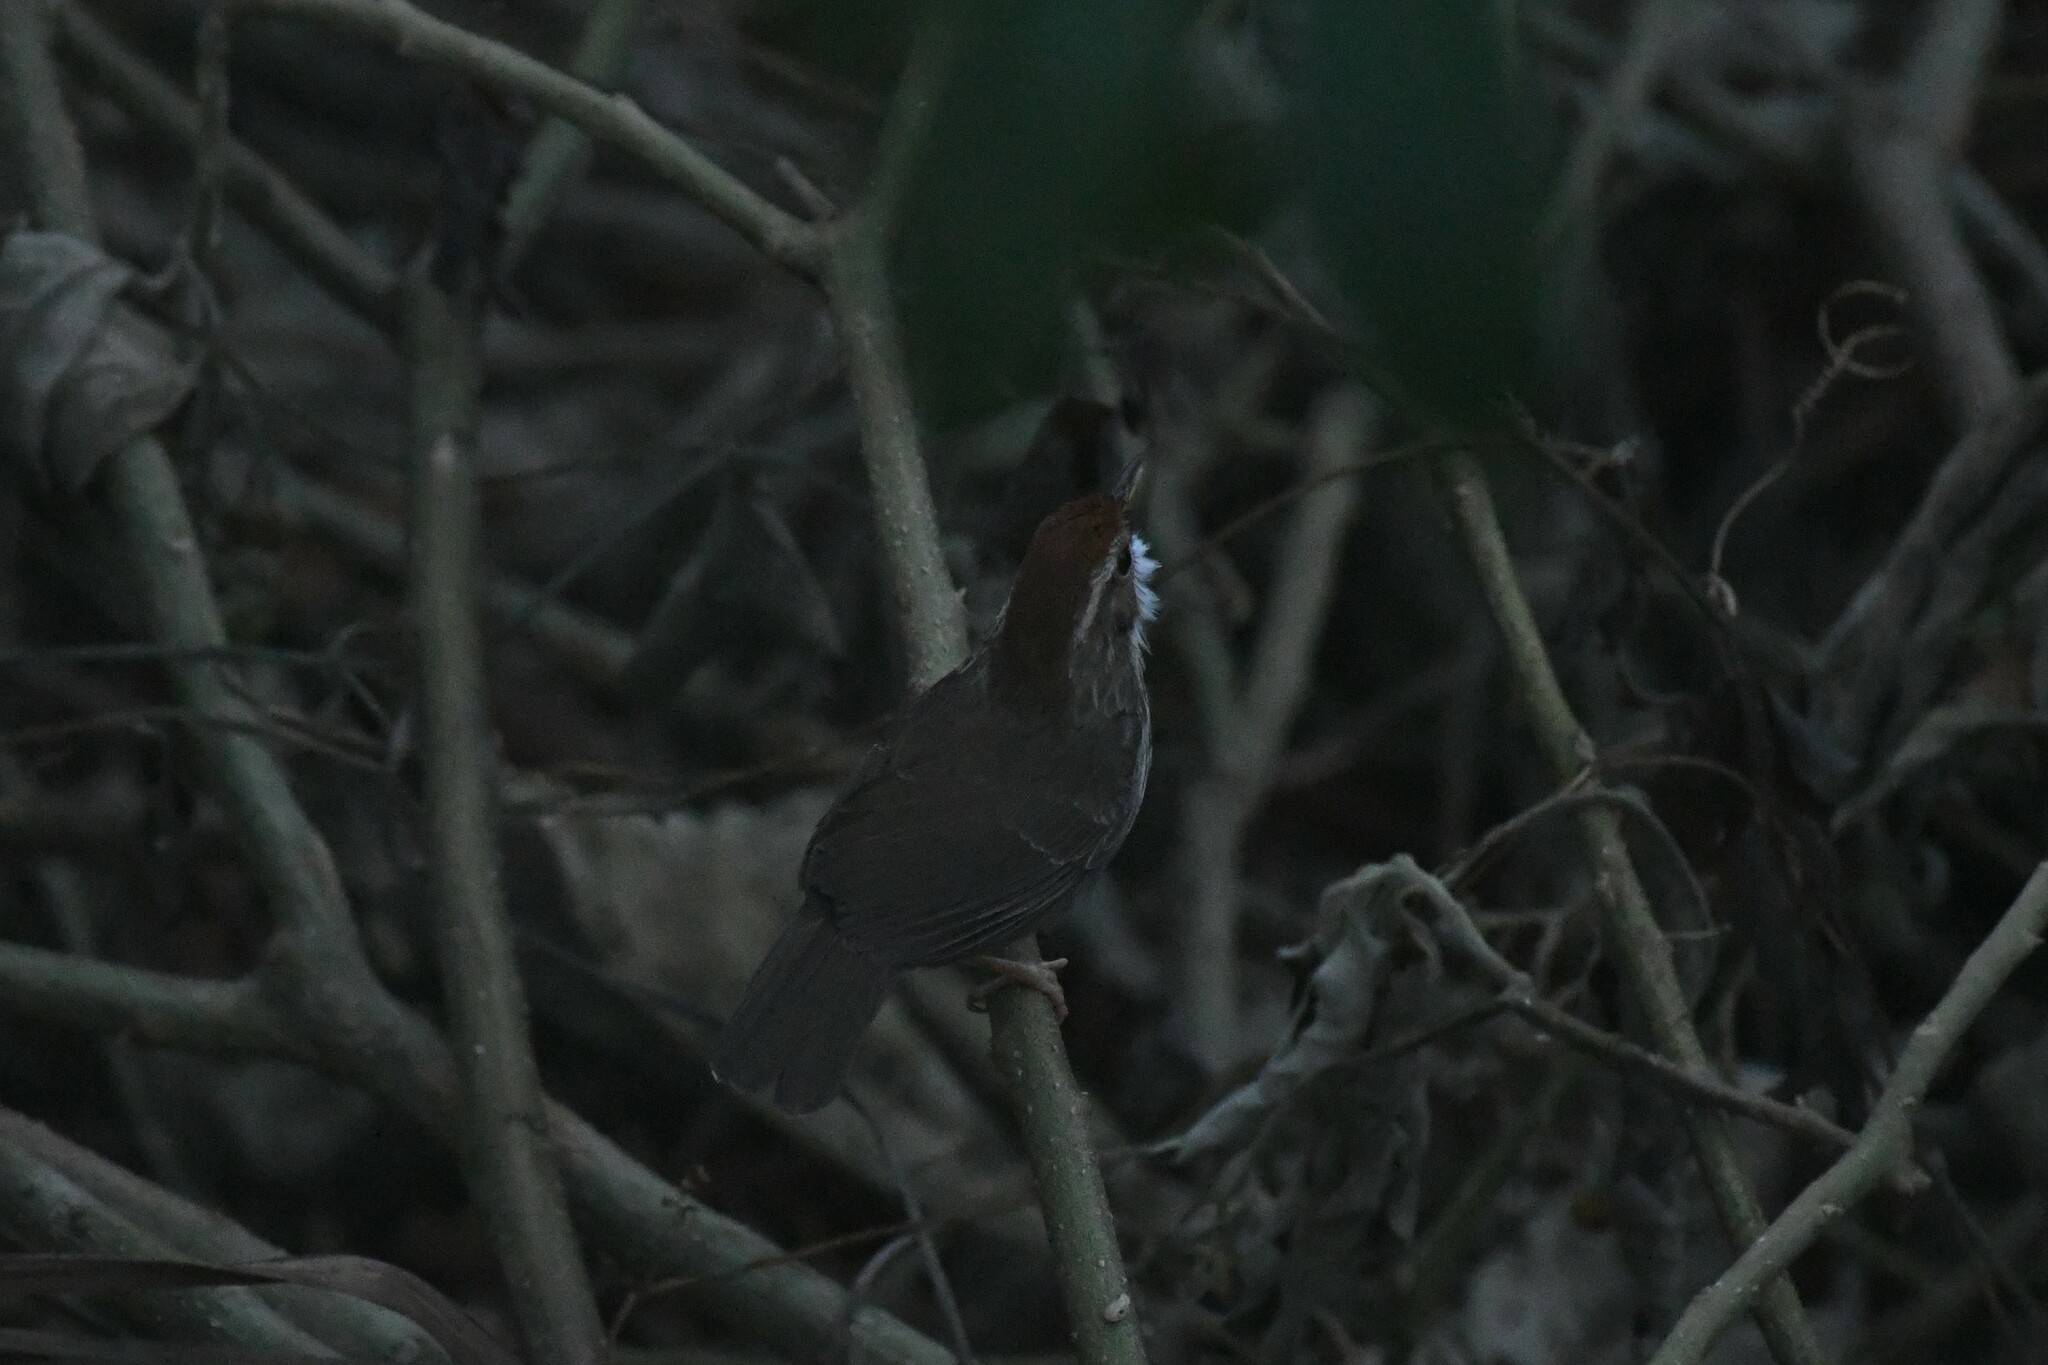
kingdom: Animalia
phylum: Chordata
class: Aves
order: Passeriformes
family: Pellorneidae
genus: Pellorneum
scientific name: Pellorneum ruficeps
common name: Puff-throated babbler
